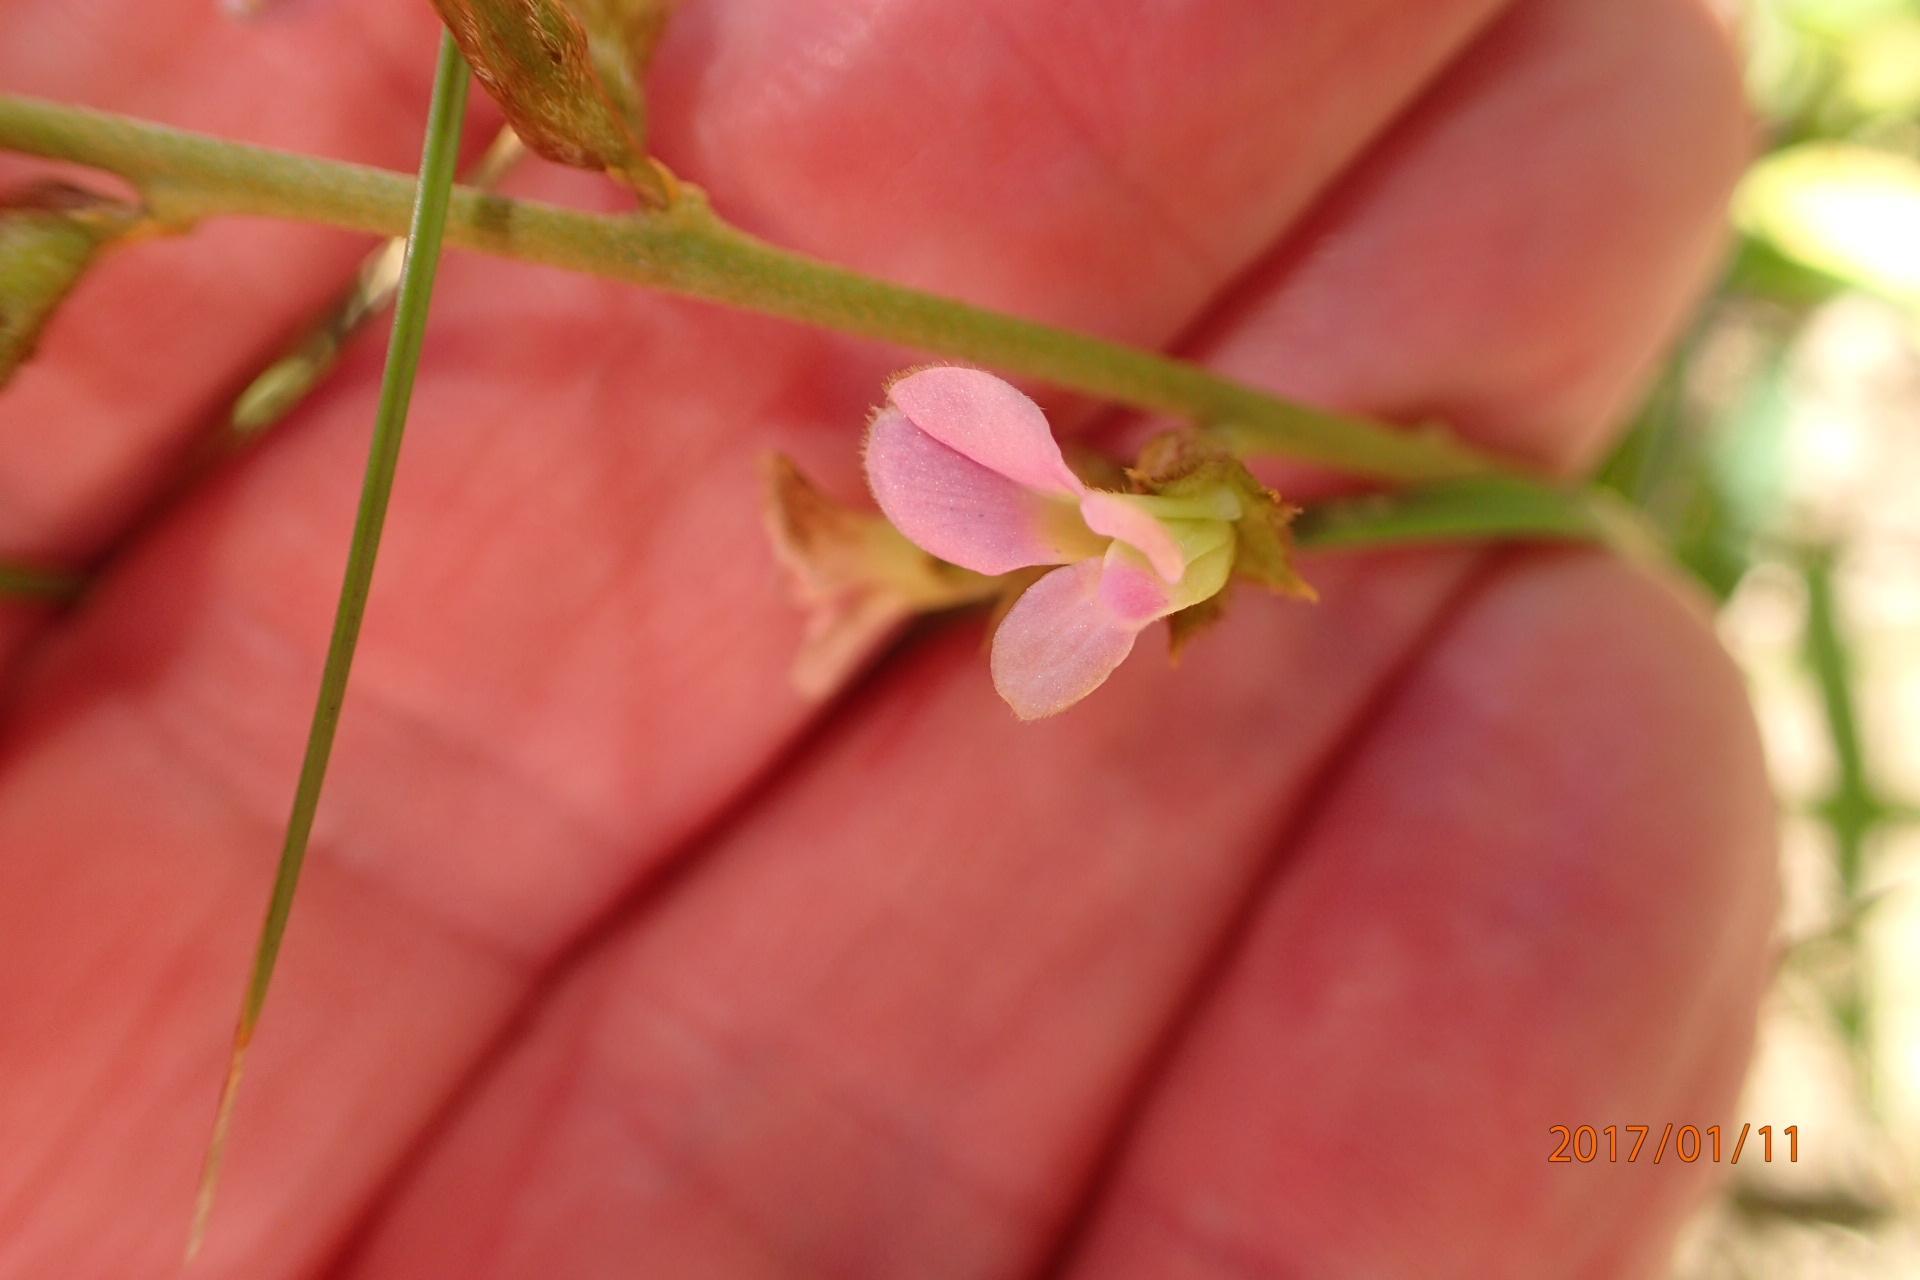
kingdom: Plantae
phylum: Tracheophyta
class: Magnoliopsida
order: Fabales
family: Fabaceae
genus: Ophrestia
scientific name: Ophrestia oblongifolia
